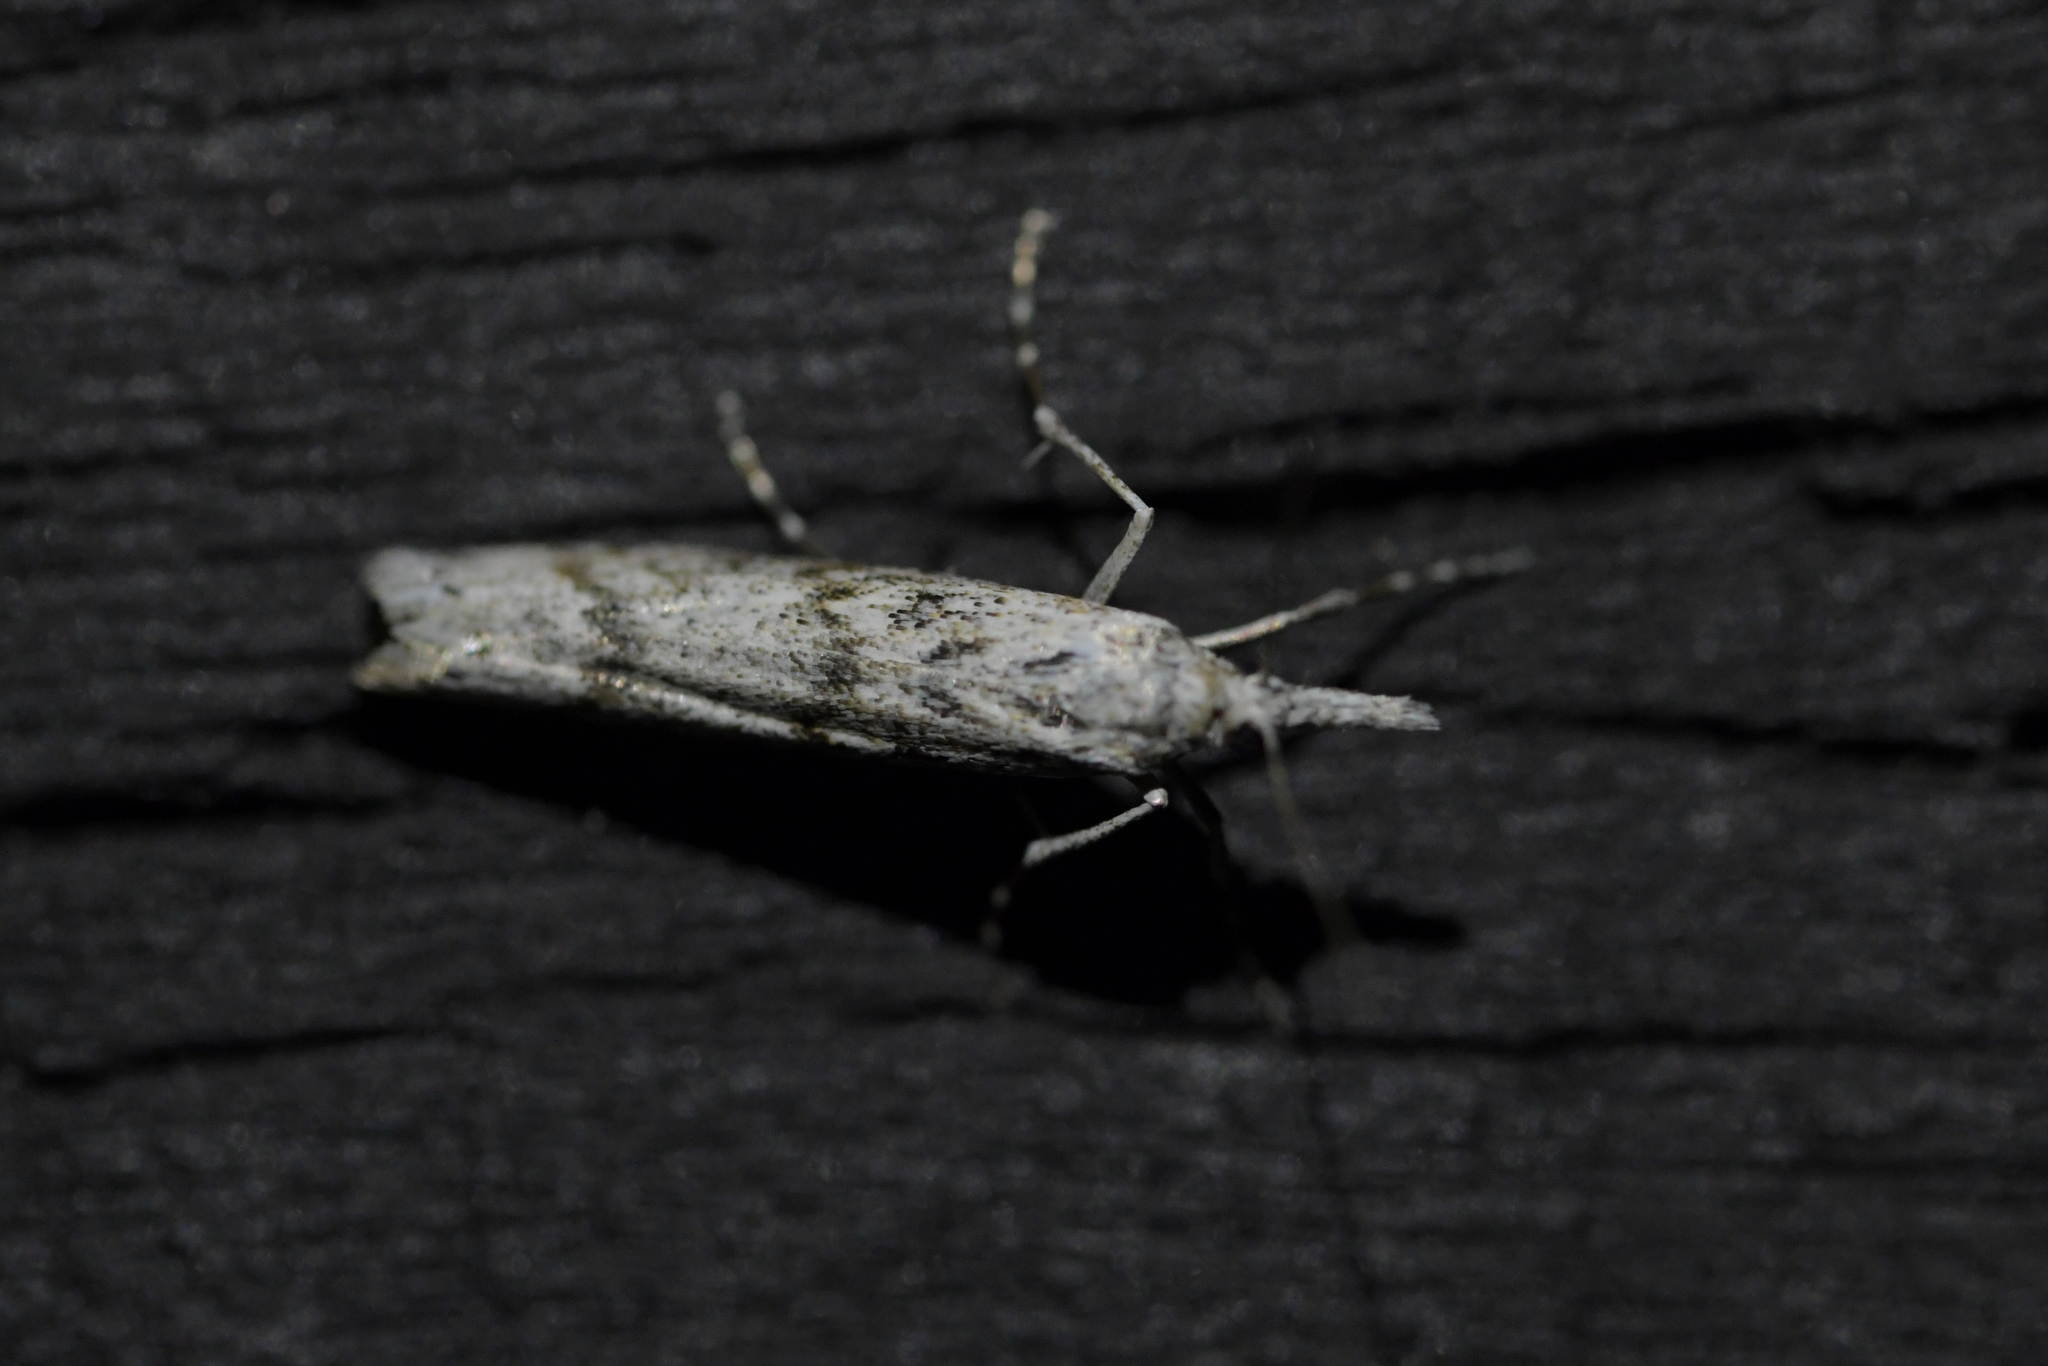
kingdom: Animalia
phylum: Arthropoda
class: Insecta
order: Lepidoptera
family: Crambidae
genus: Orocrambus
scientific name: Orocrambus cyclopicus
